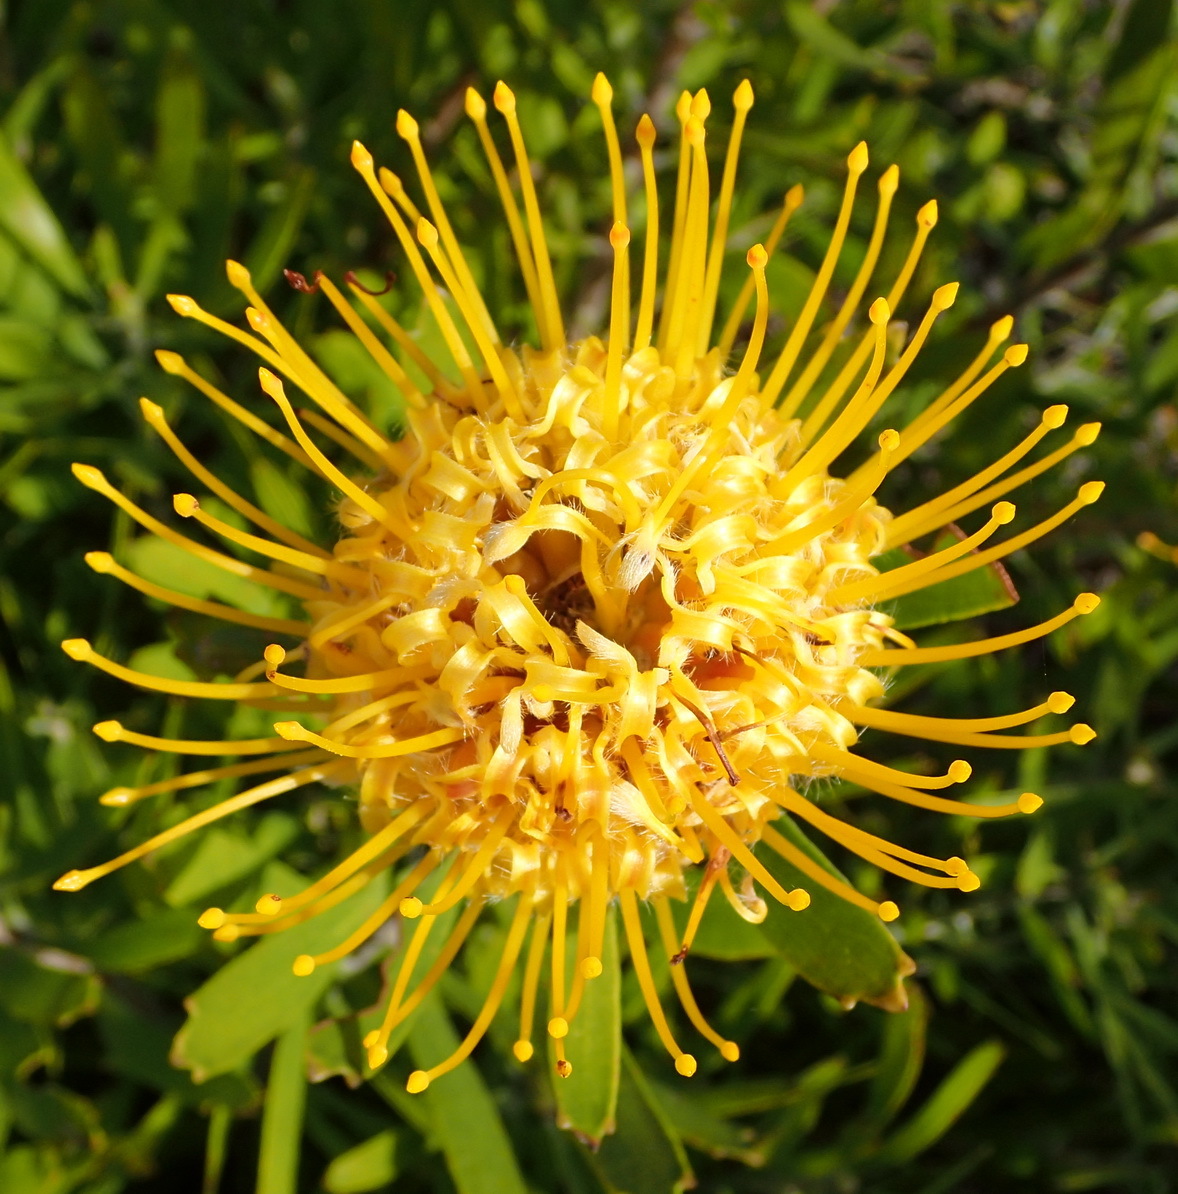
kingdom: Plantae
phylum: Tracheophyta
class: Magnoliopsida
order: Proteales
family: Proteaceae
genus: Leucospermum
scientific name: Leucospermum cuneiforme
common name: Common pincushion
